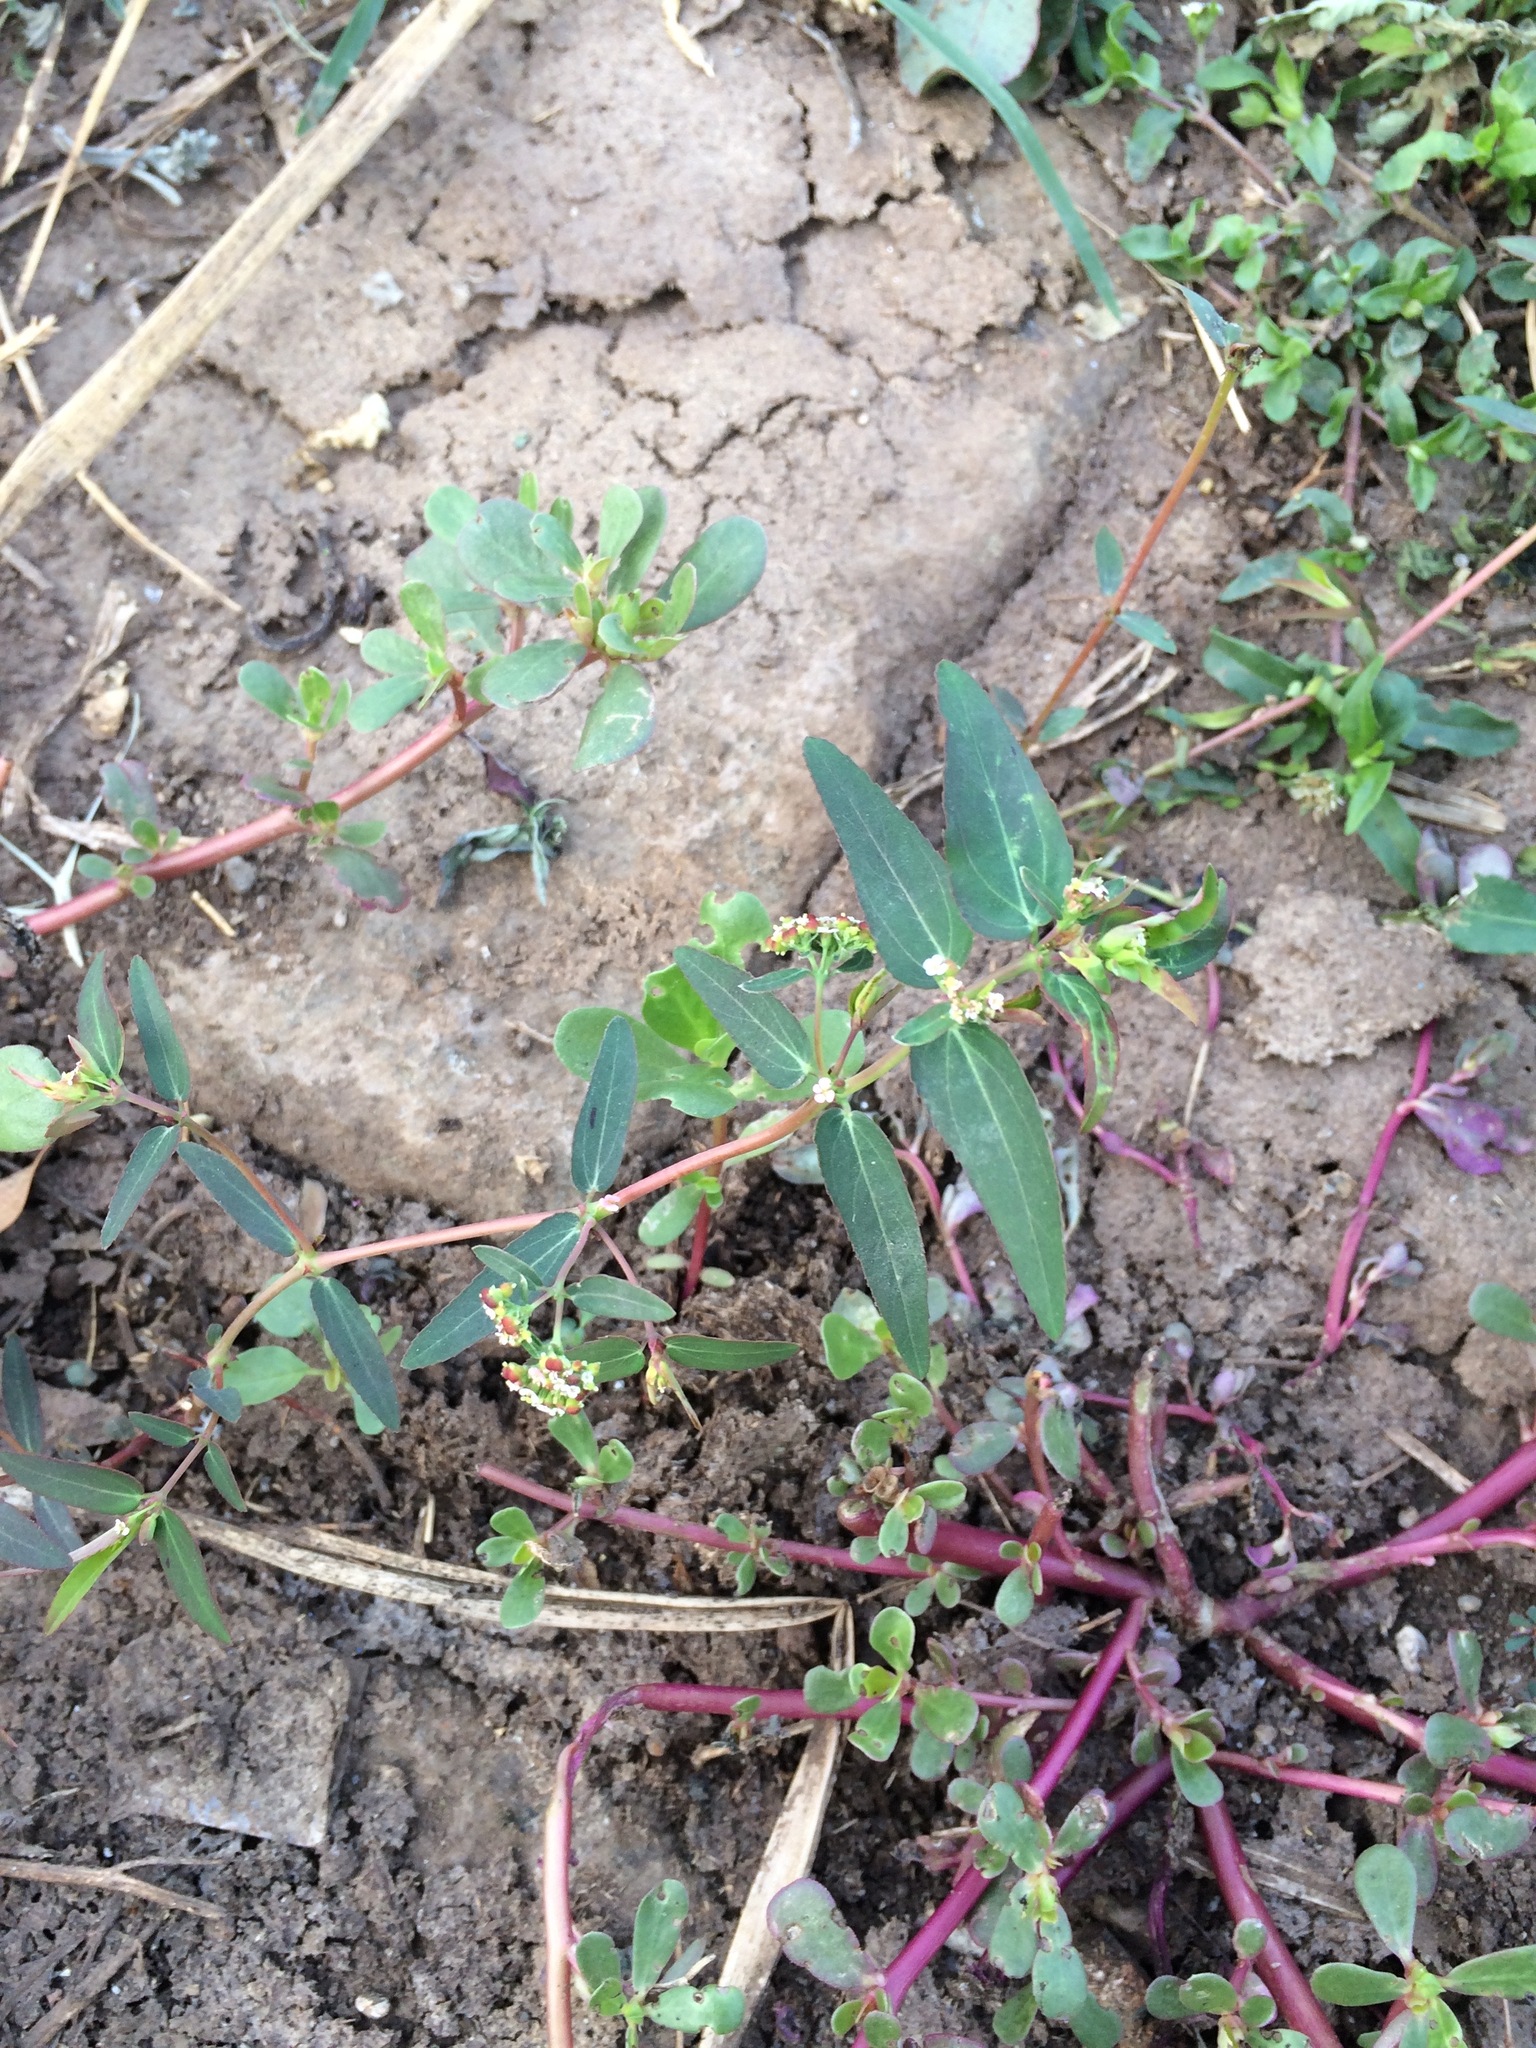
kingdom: Plantae
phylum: Tracheophyta
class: Magnoliopsida
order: Malpighiales
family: Euphorbiaceae
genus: Euphorbia
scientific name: Euphorbia hypericifolia
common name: Graceful sandmat
